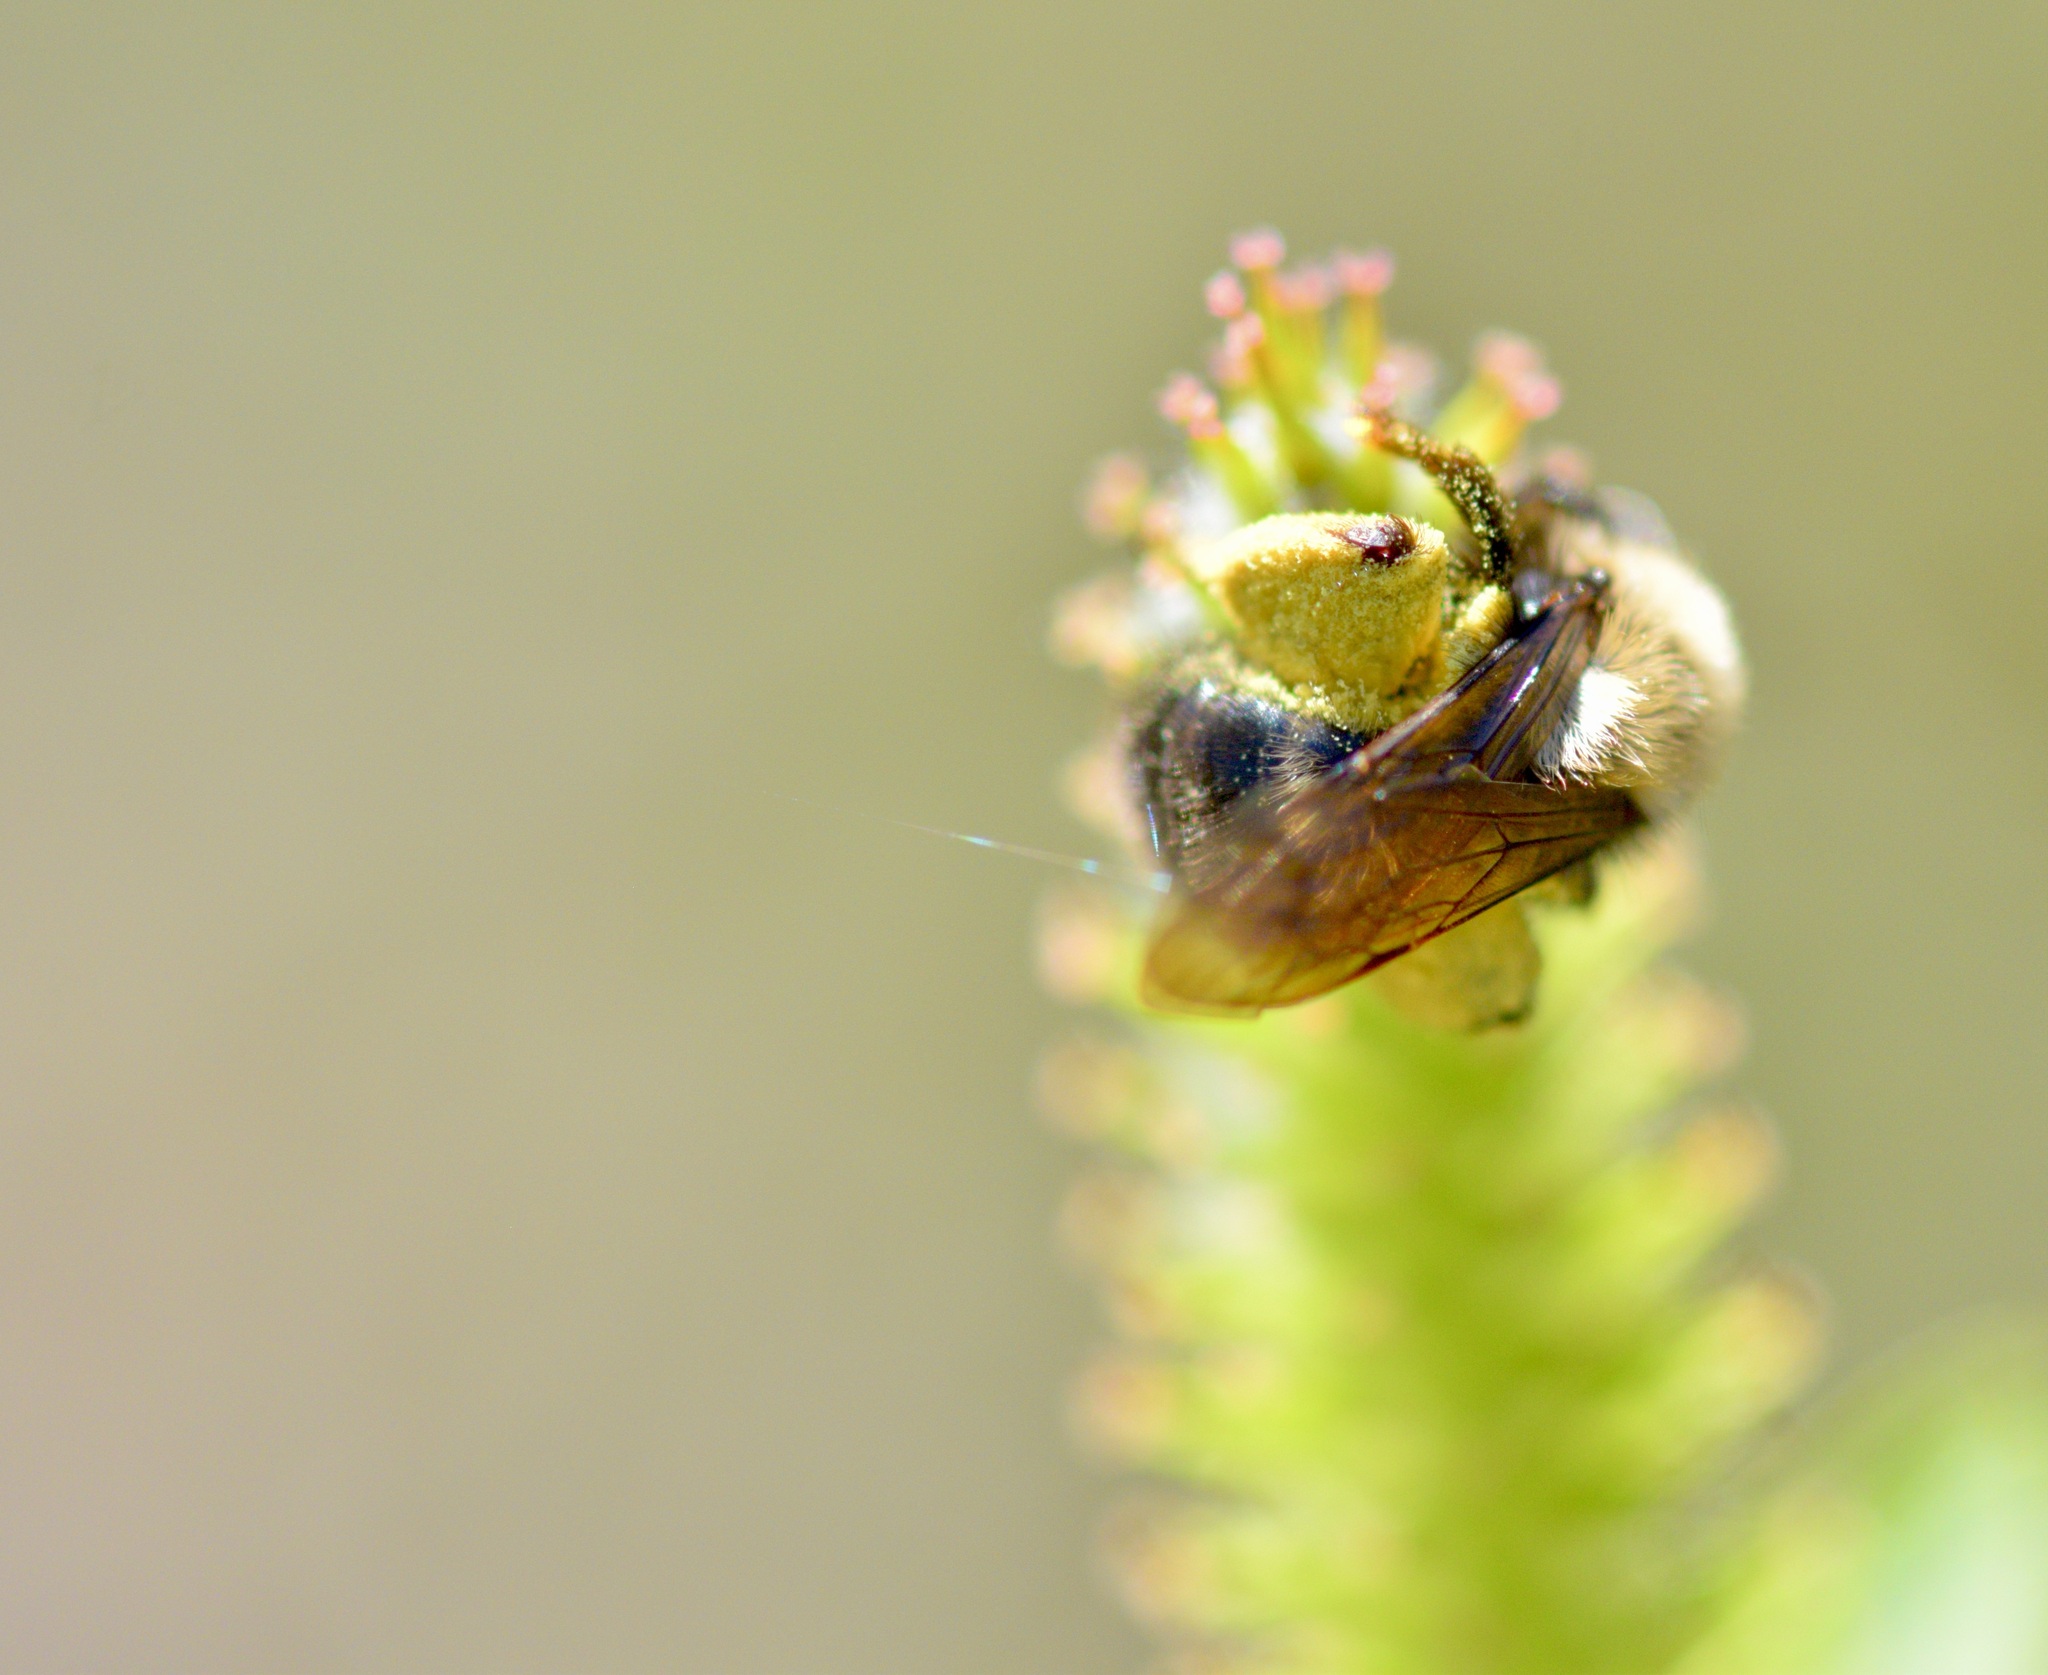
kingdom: Animalia
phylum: Arthropoda
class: Insecta
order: Hymenoptera
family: Andrenidae
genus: Andrena
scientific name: Andrena clarkella
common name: Clarke's mining bee
